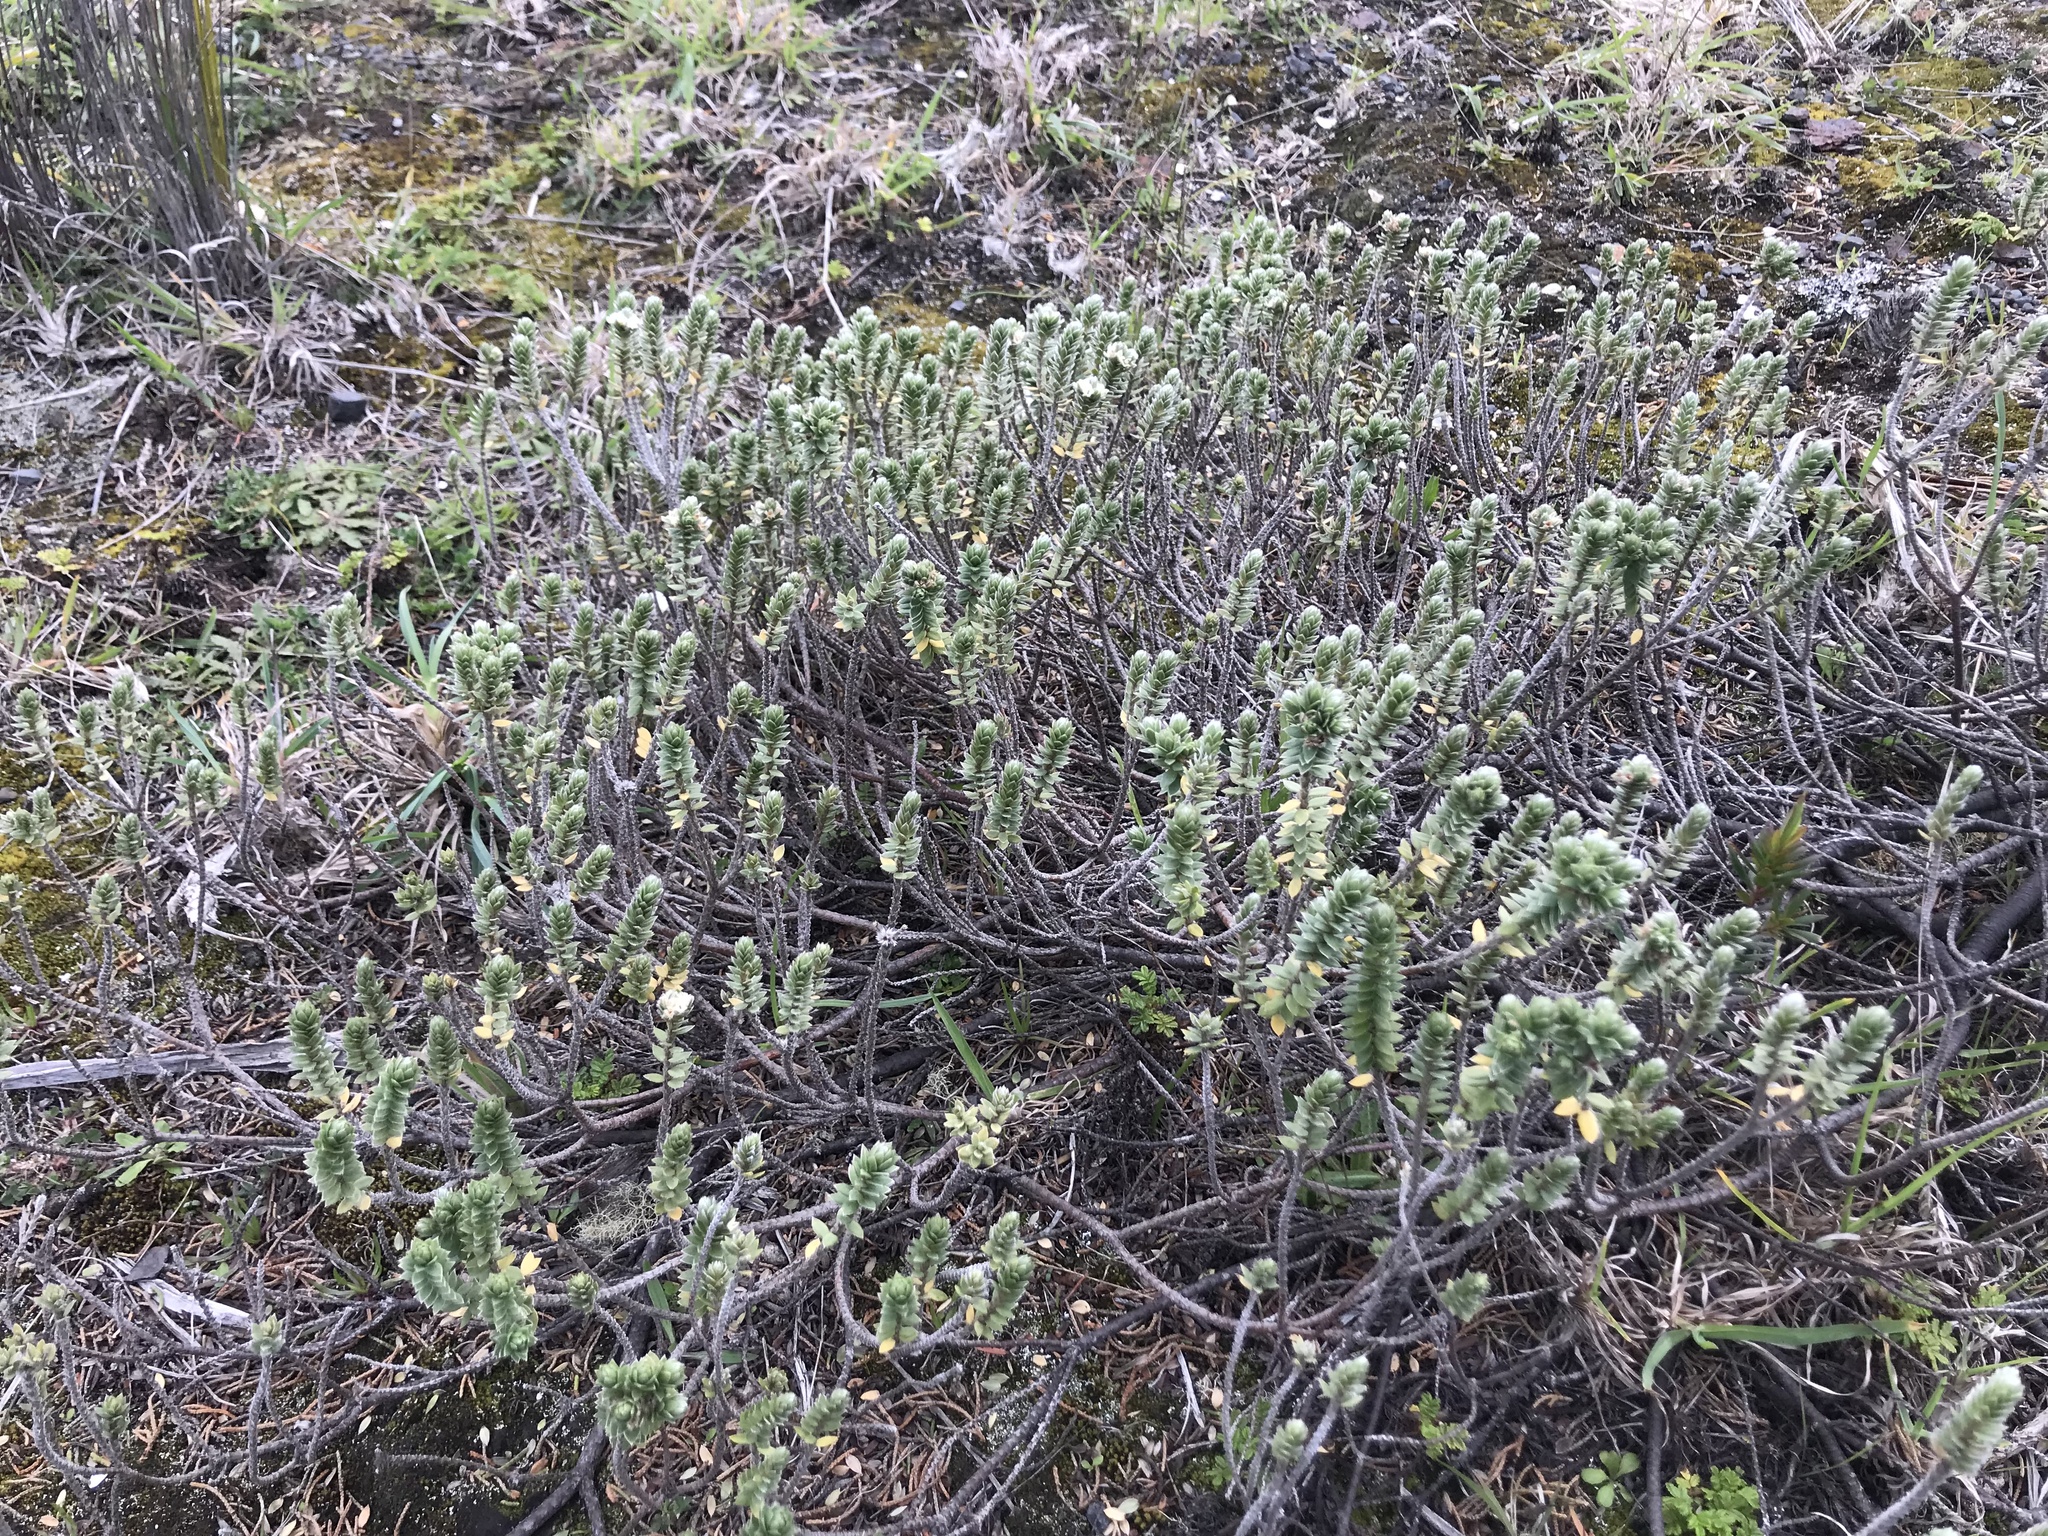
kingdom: Plantae
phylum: Tracheophyta
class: Magnoliopsida
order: Malvales
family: Thymelaeaceae
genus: Pimelea
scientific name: Pimelea villosa
